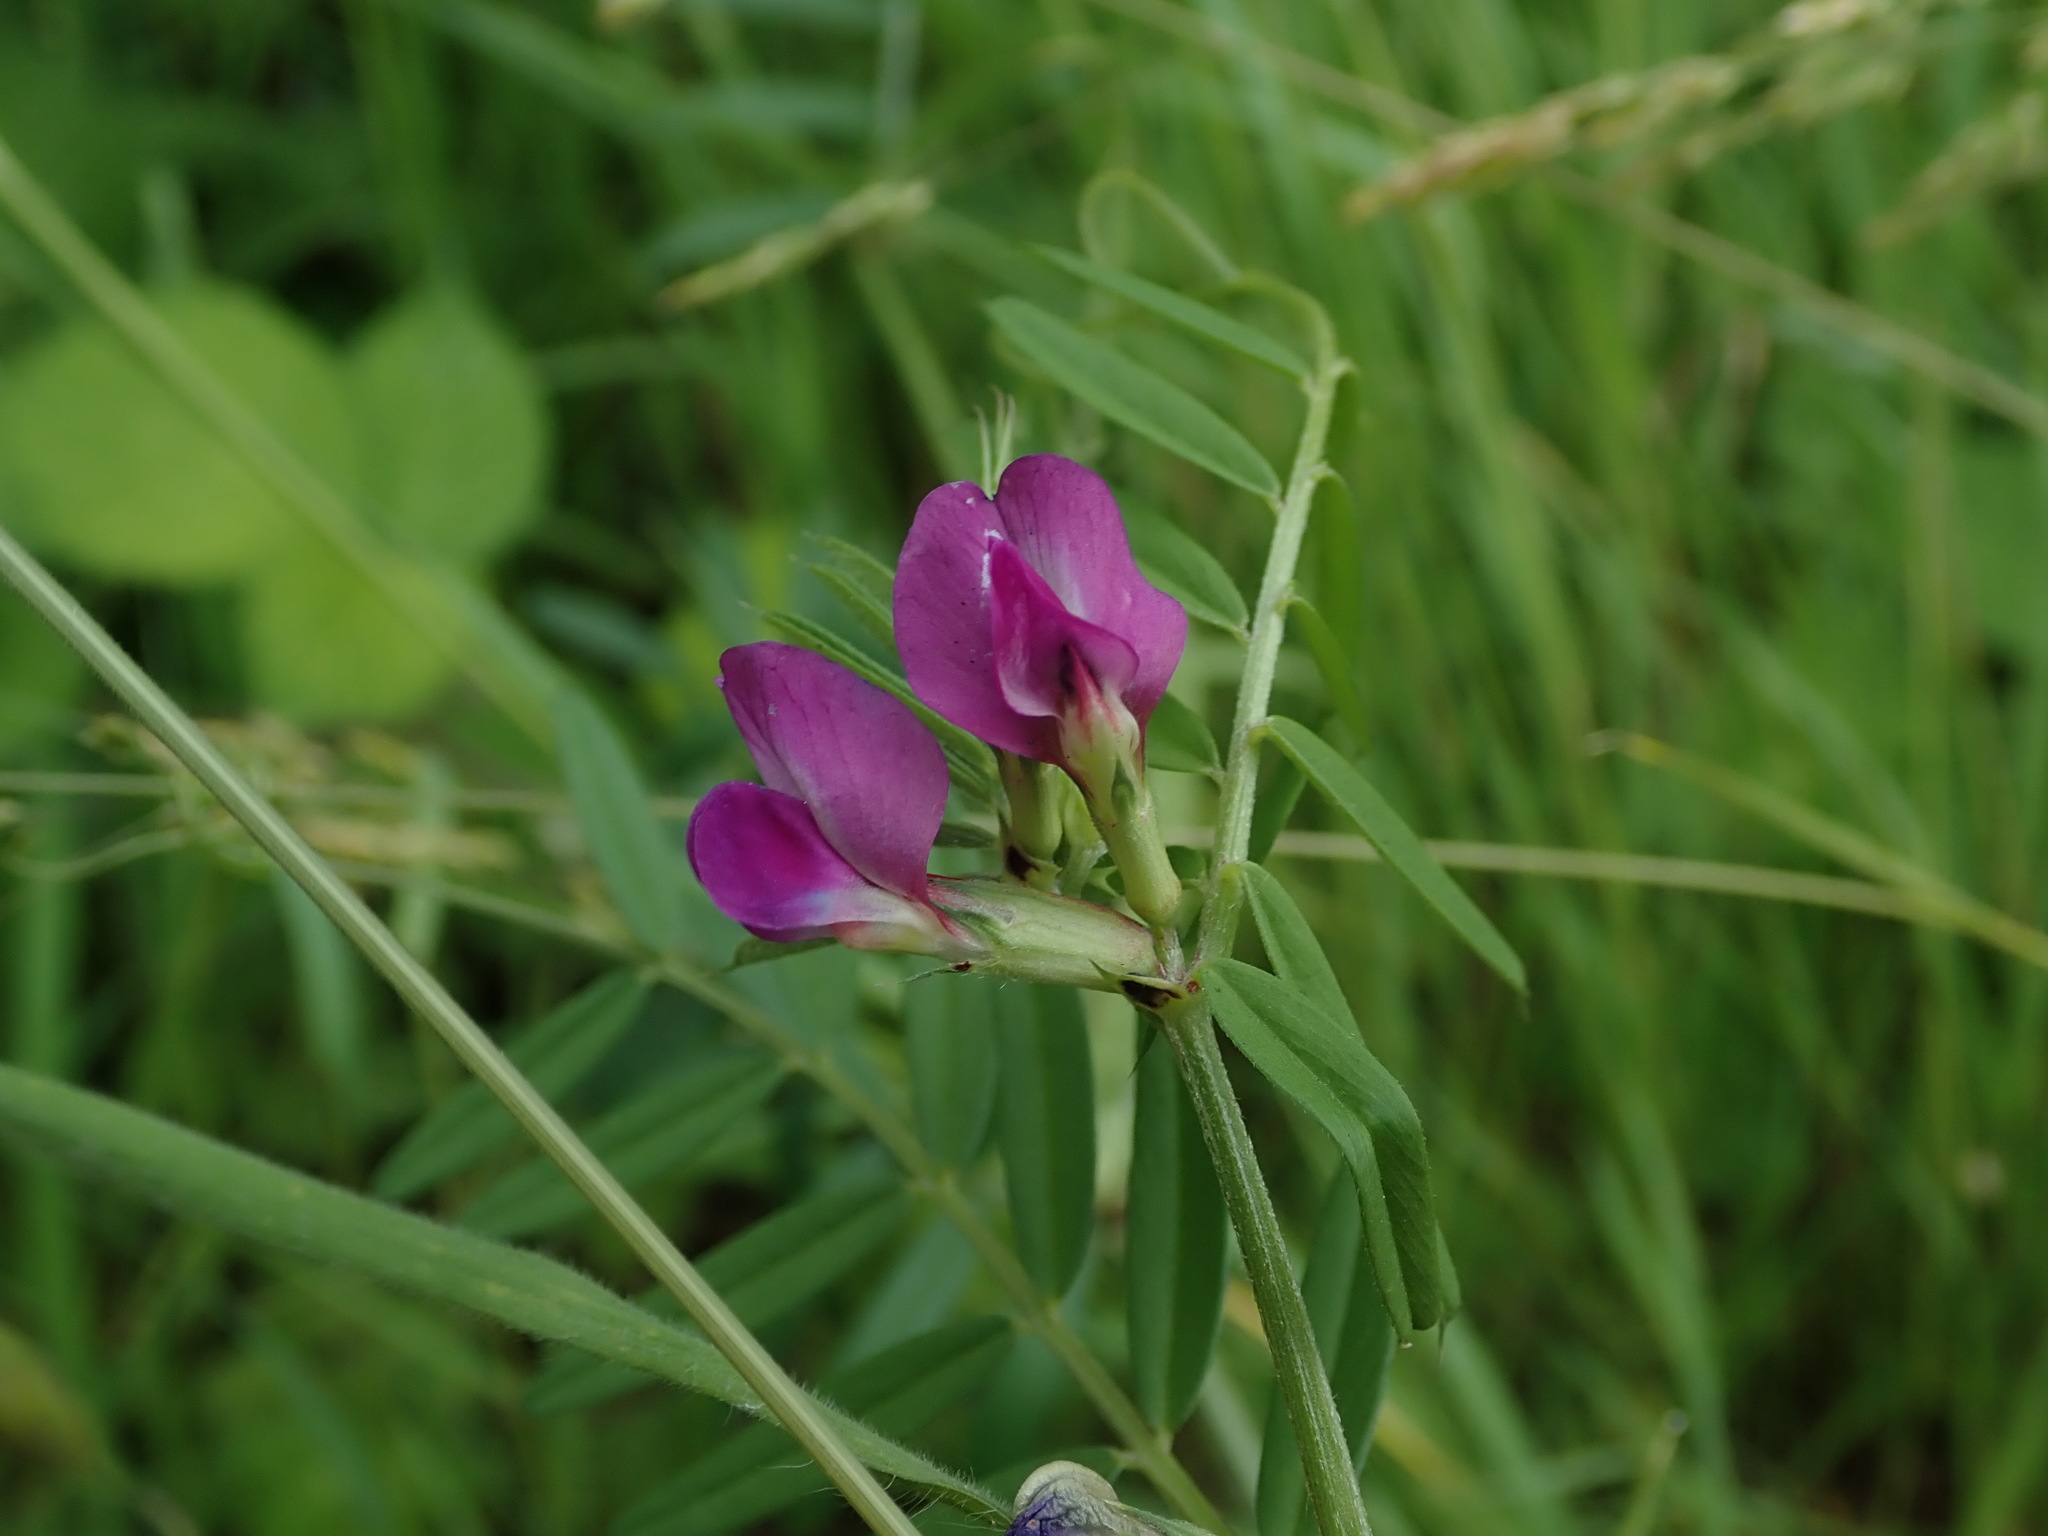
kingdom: Plantae
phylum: Tracheophyta
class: Magnoliopsida
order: Fabales
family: Fabaceae
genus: Vicia
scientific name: Vicia sativa
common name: Garden vetch
